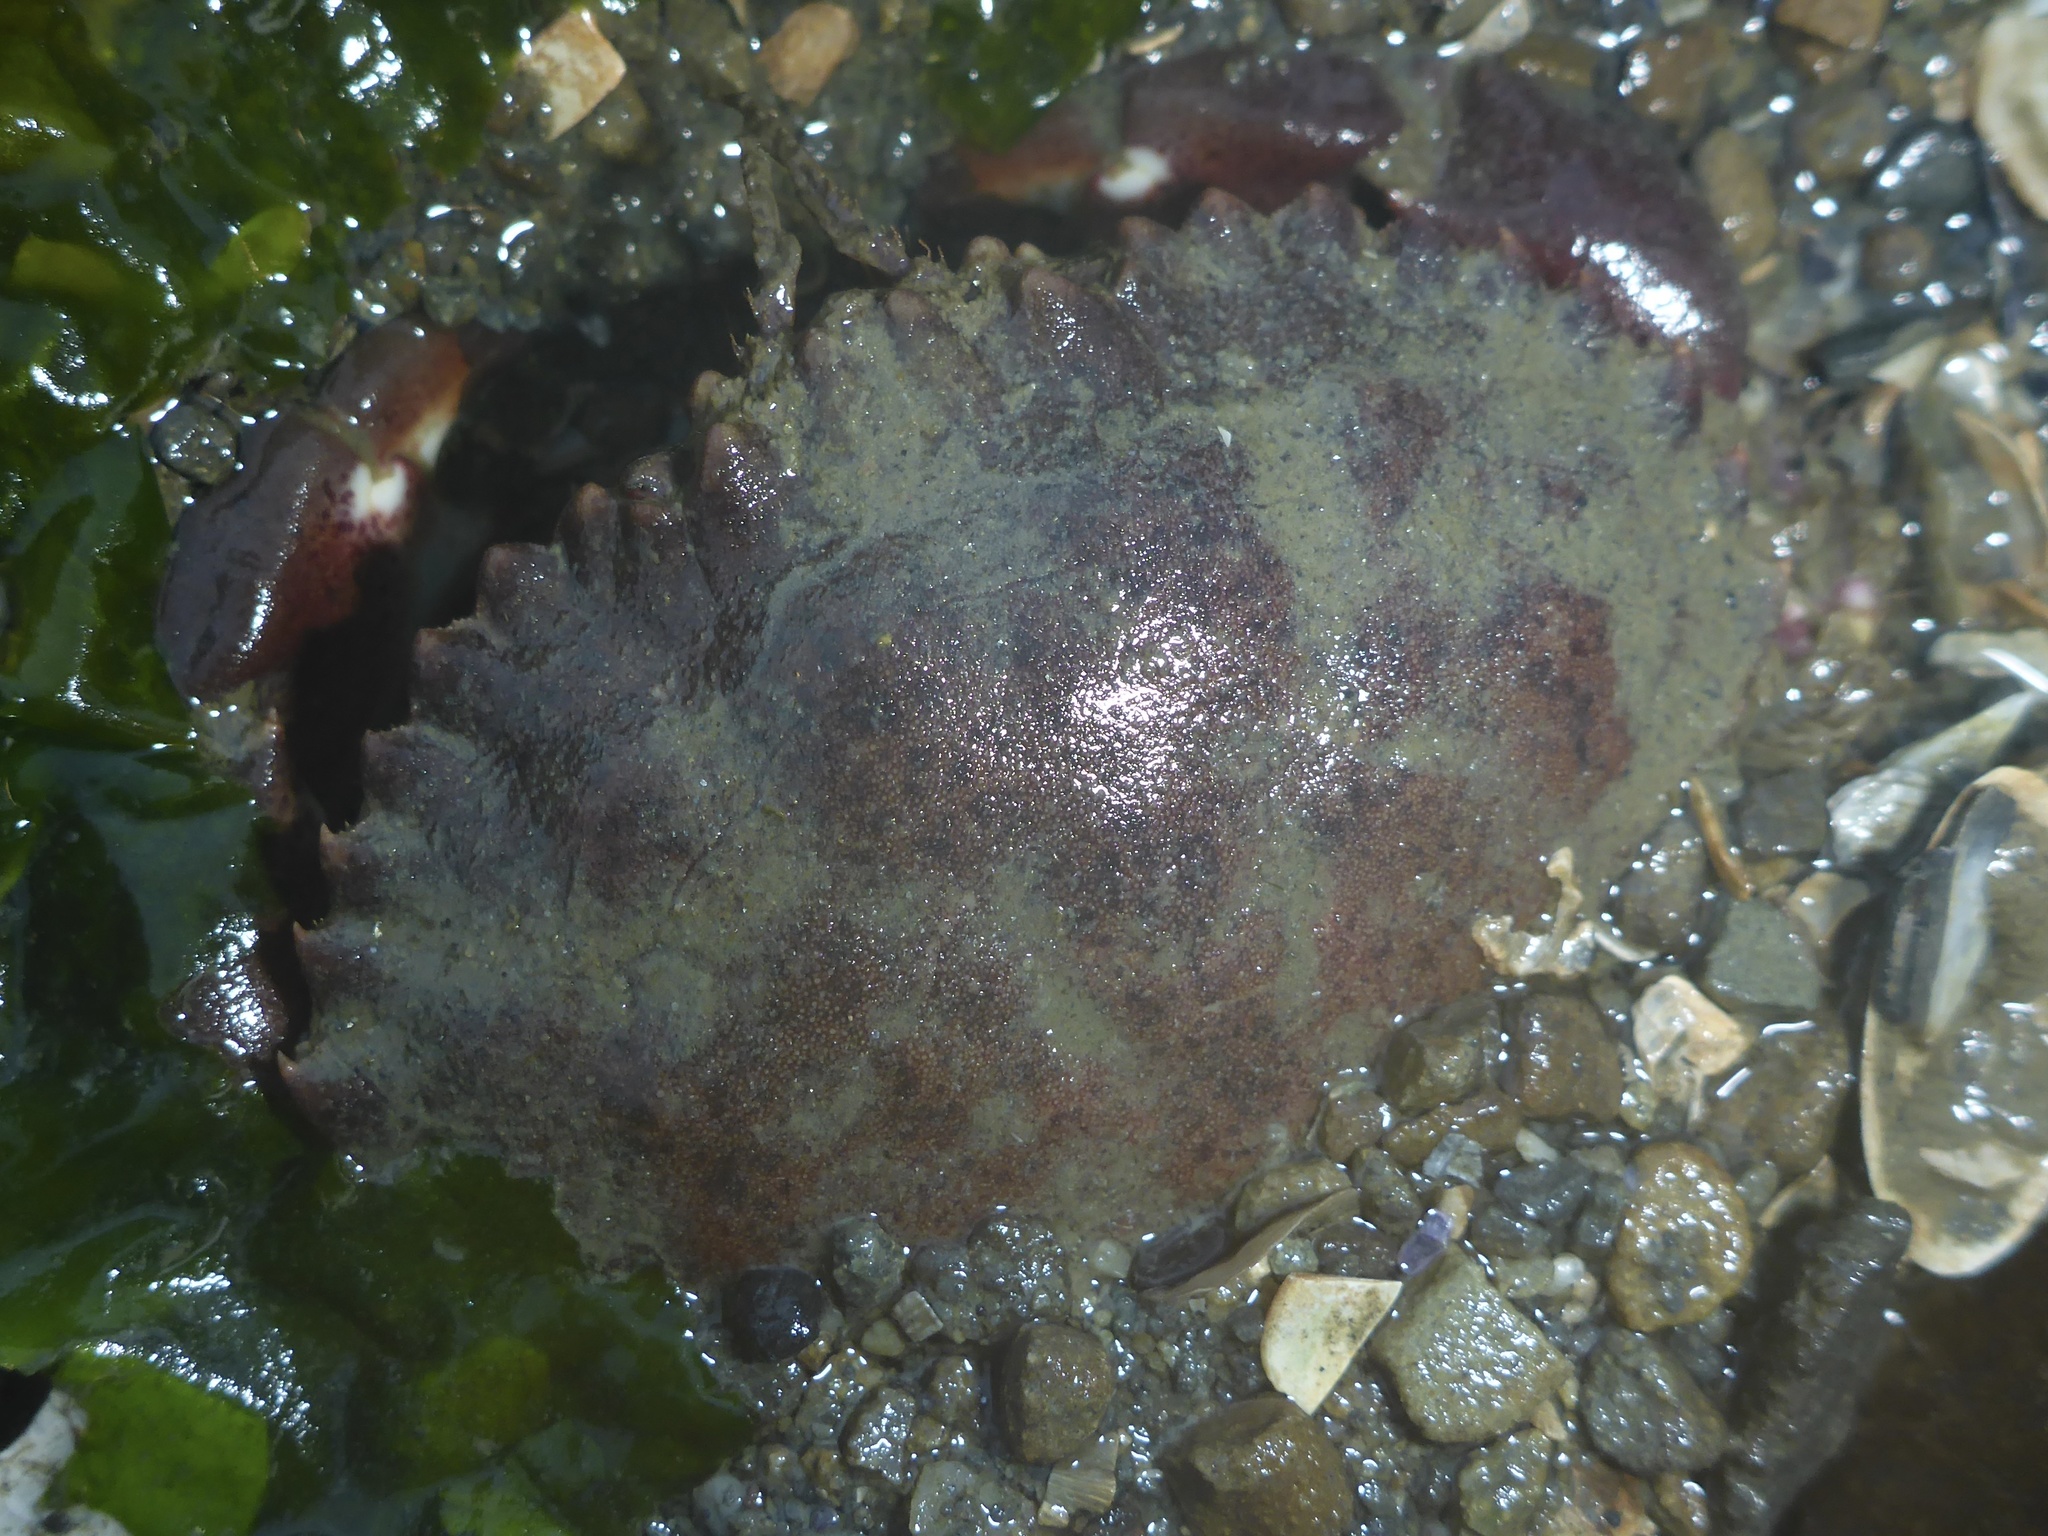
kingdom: Animalia
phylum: Arthropoda
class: Malacostraca
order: Decapoda
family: Cancridae
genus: Romaleon
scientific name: Romaleon antennarium
